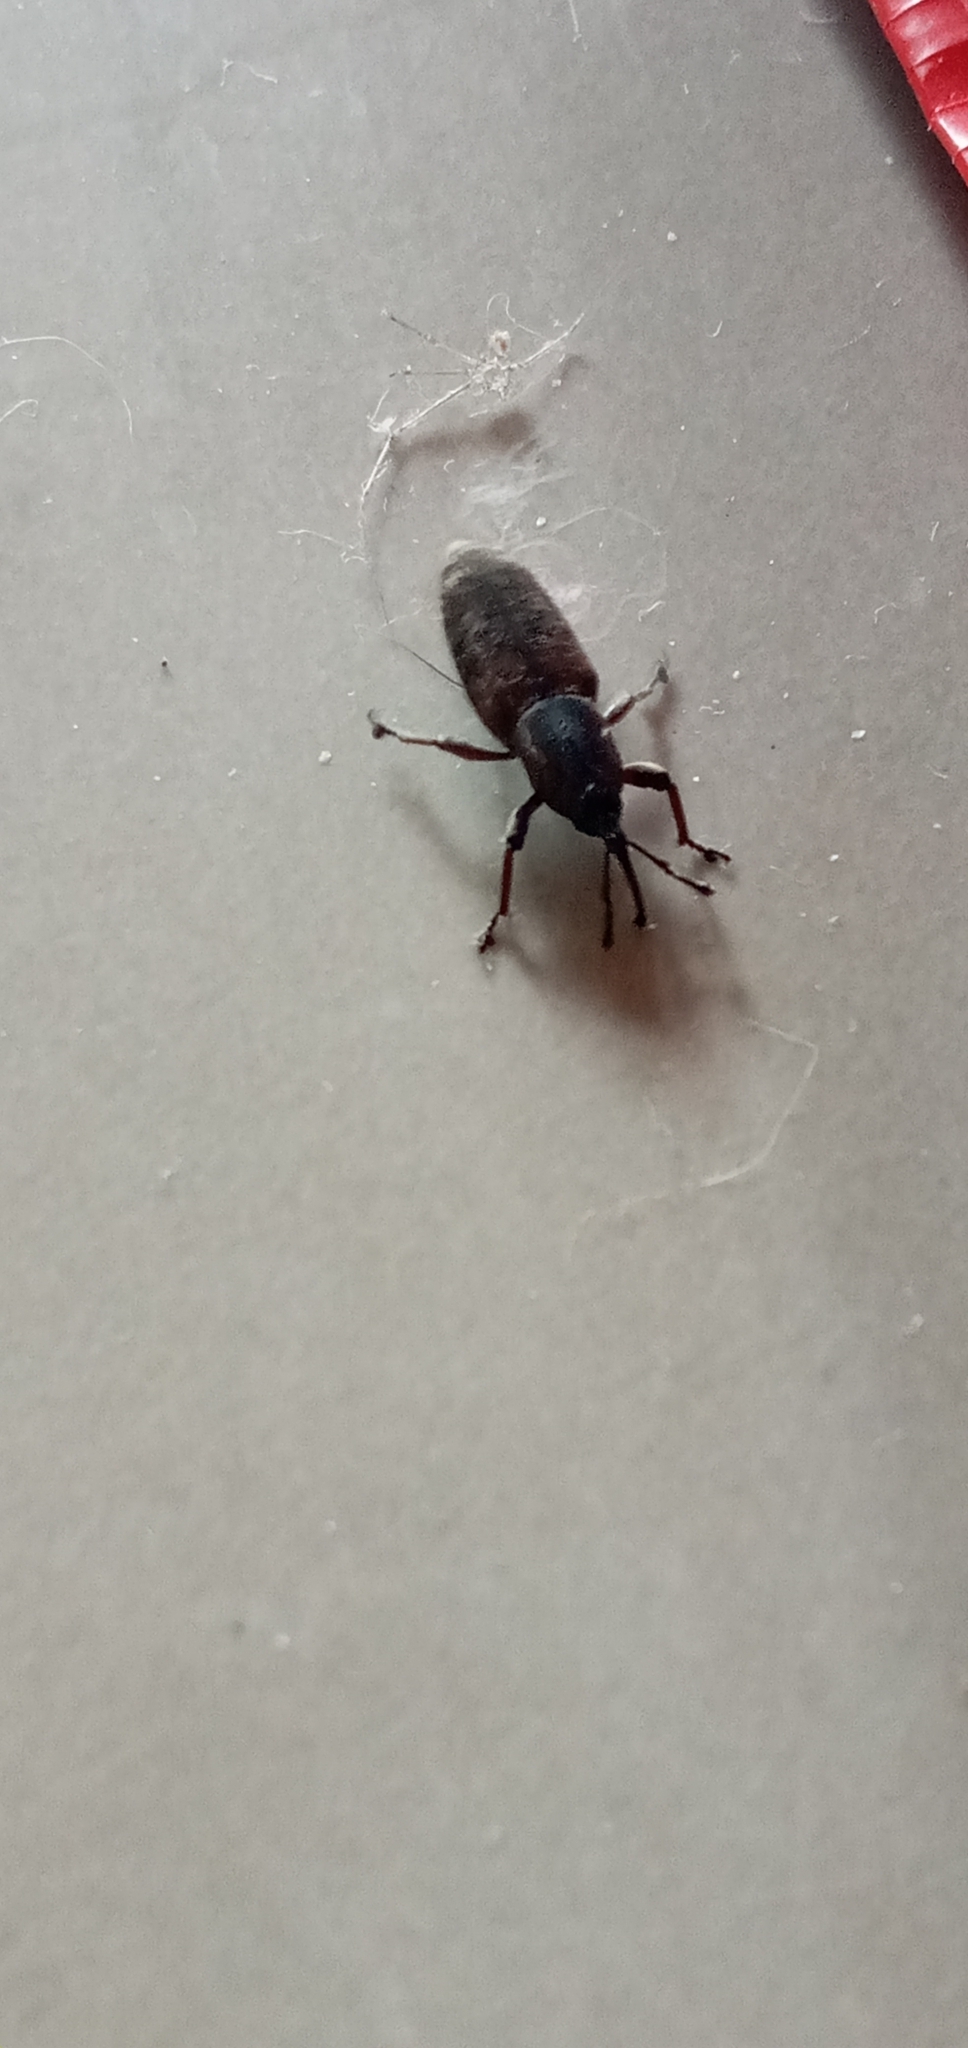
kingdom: Animalia
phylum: Arthropoda
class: Insecta
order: Coleoptera
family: Dryophthoridae
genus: Odoiporus
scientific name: Odoiporus longicollis
